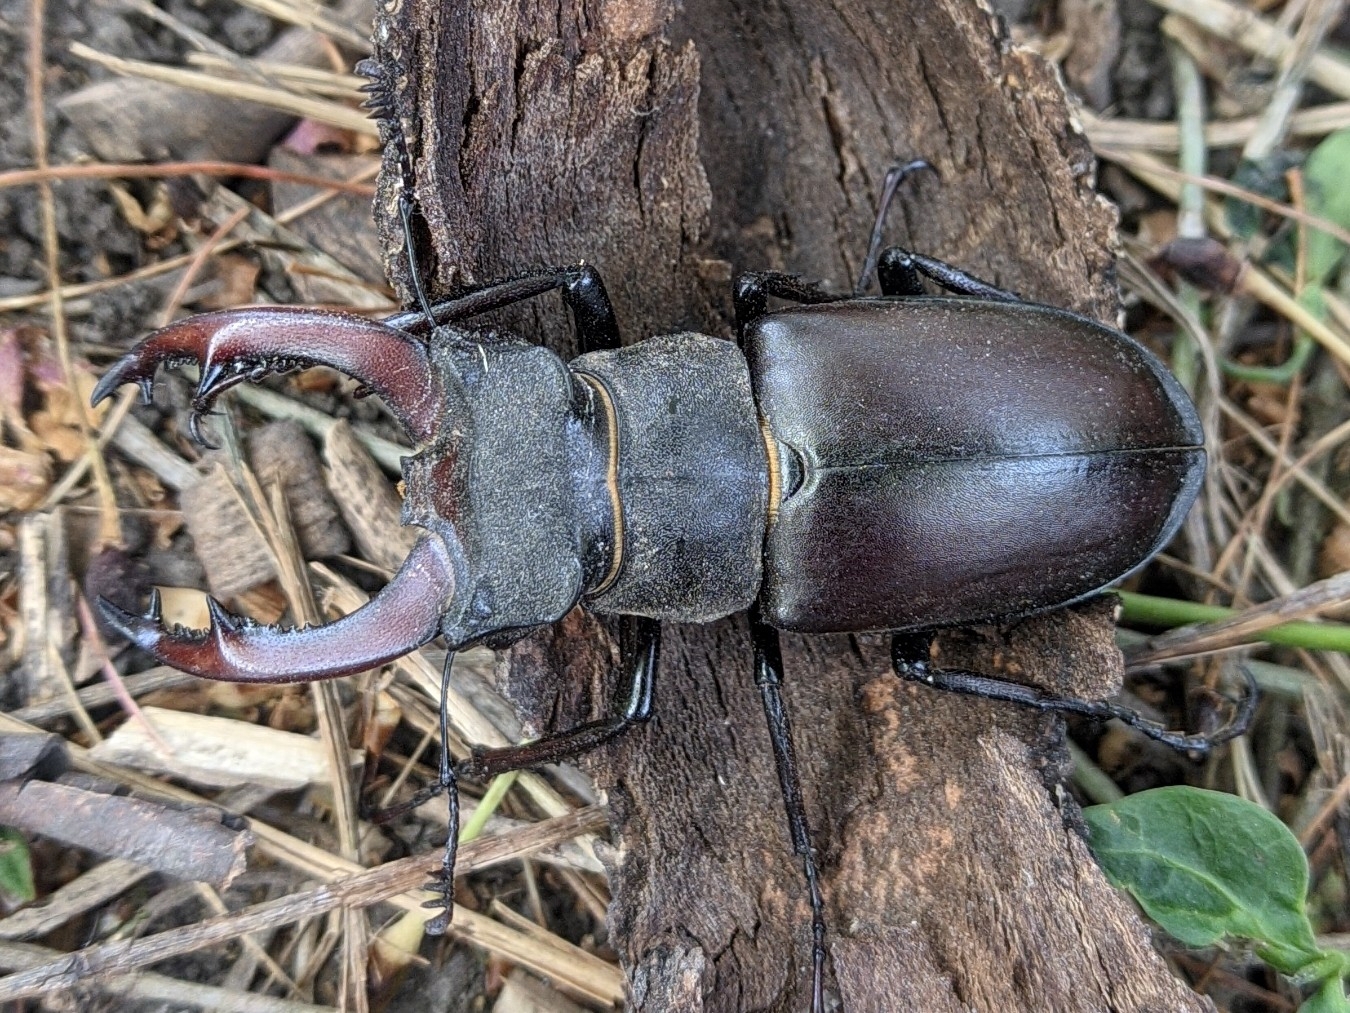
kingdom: Animalia
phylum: Arthropoda
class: Insecta
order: Coleoptera
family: Lucanidae
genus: Lucanus
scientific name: Lucanus cervus
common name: Stag beetle
